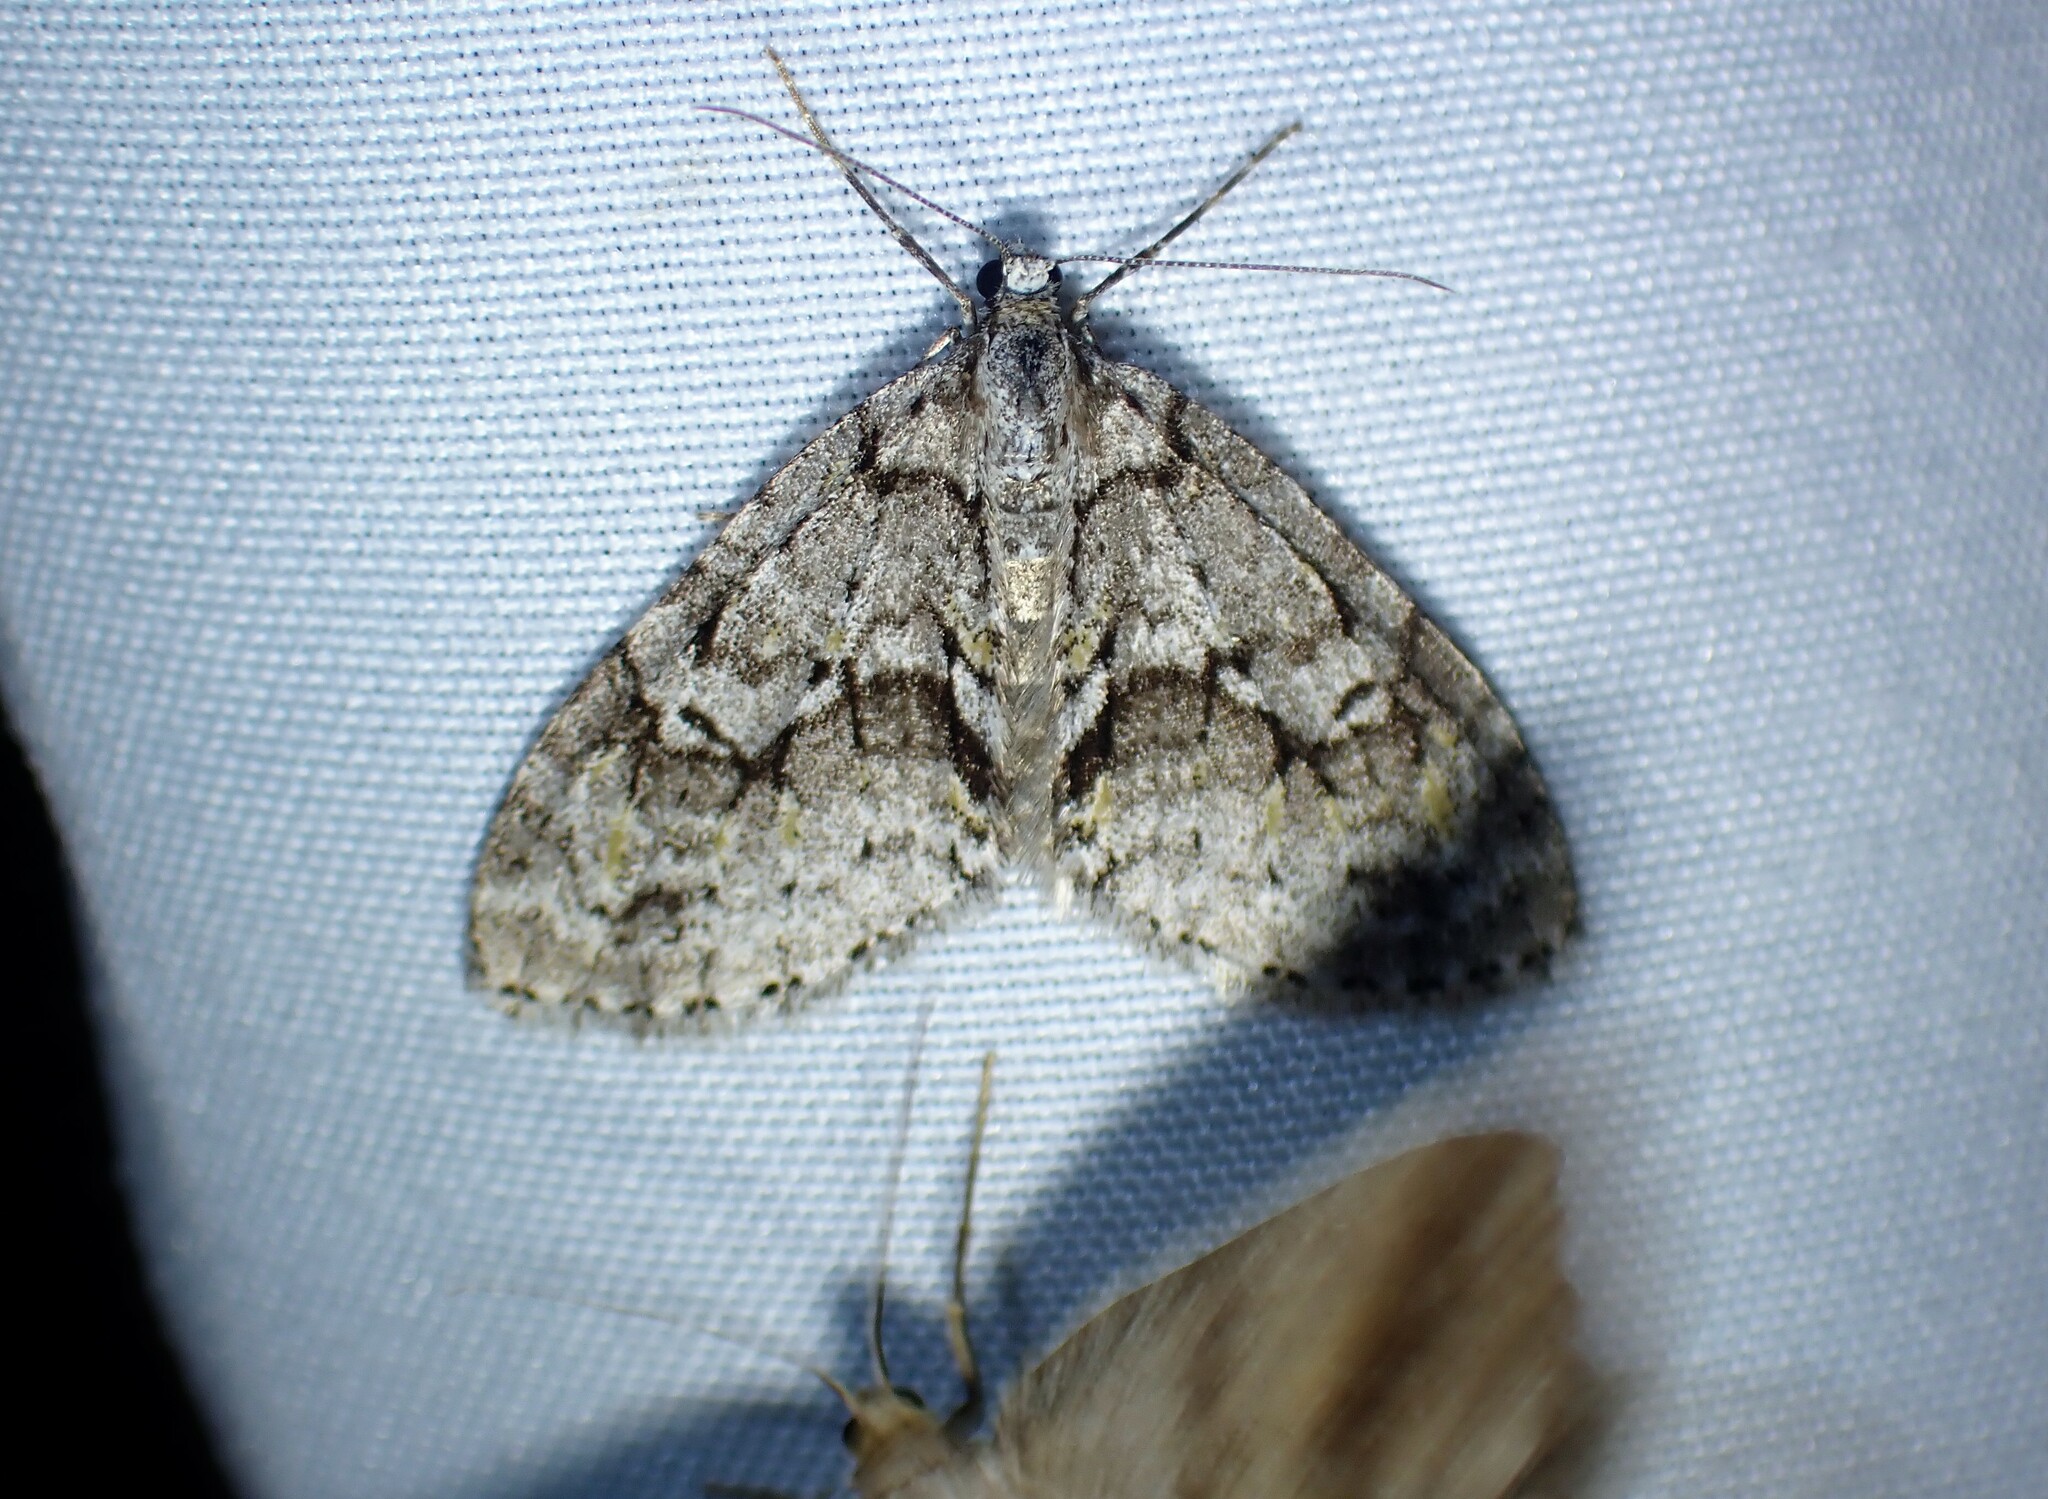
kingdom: Animalia
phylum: Arthropoda
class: Insecta
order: Lepidoptera
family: Geometridae
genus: Cladara
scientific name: Cladara limitaria
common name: Mottled gray carpet
